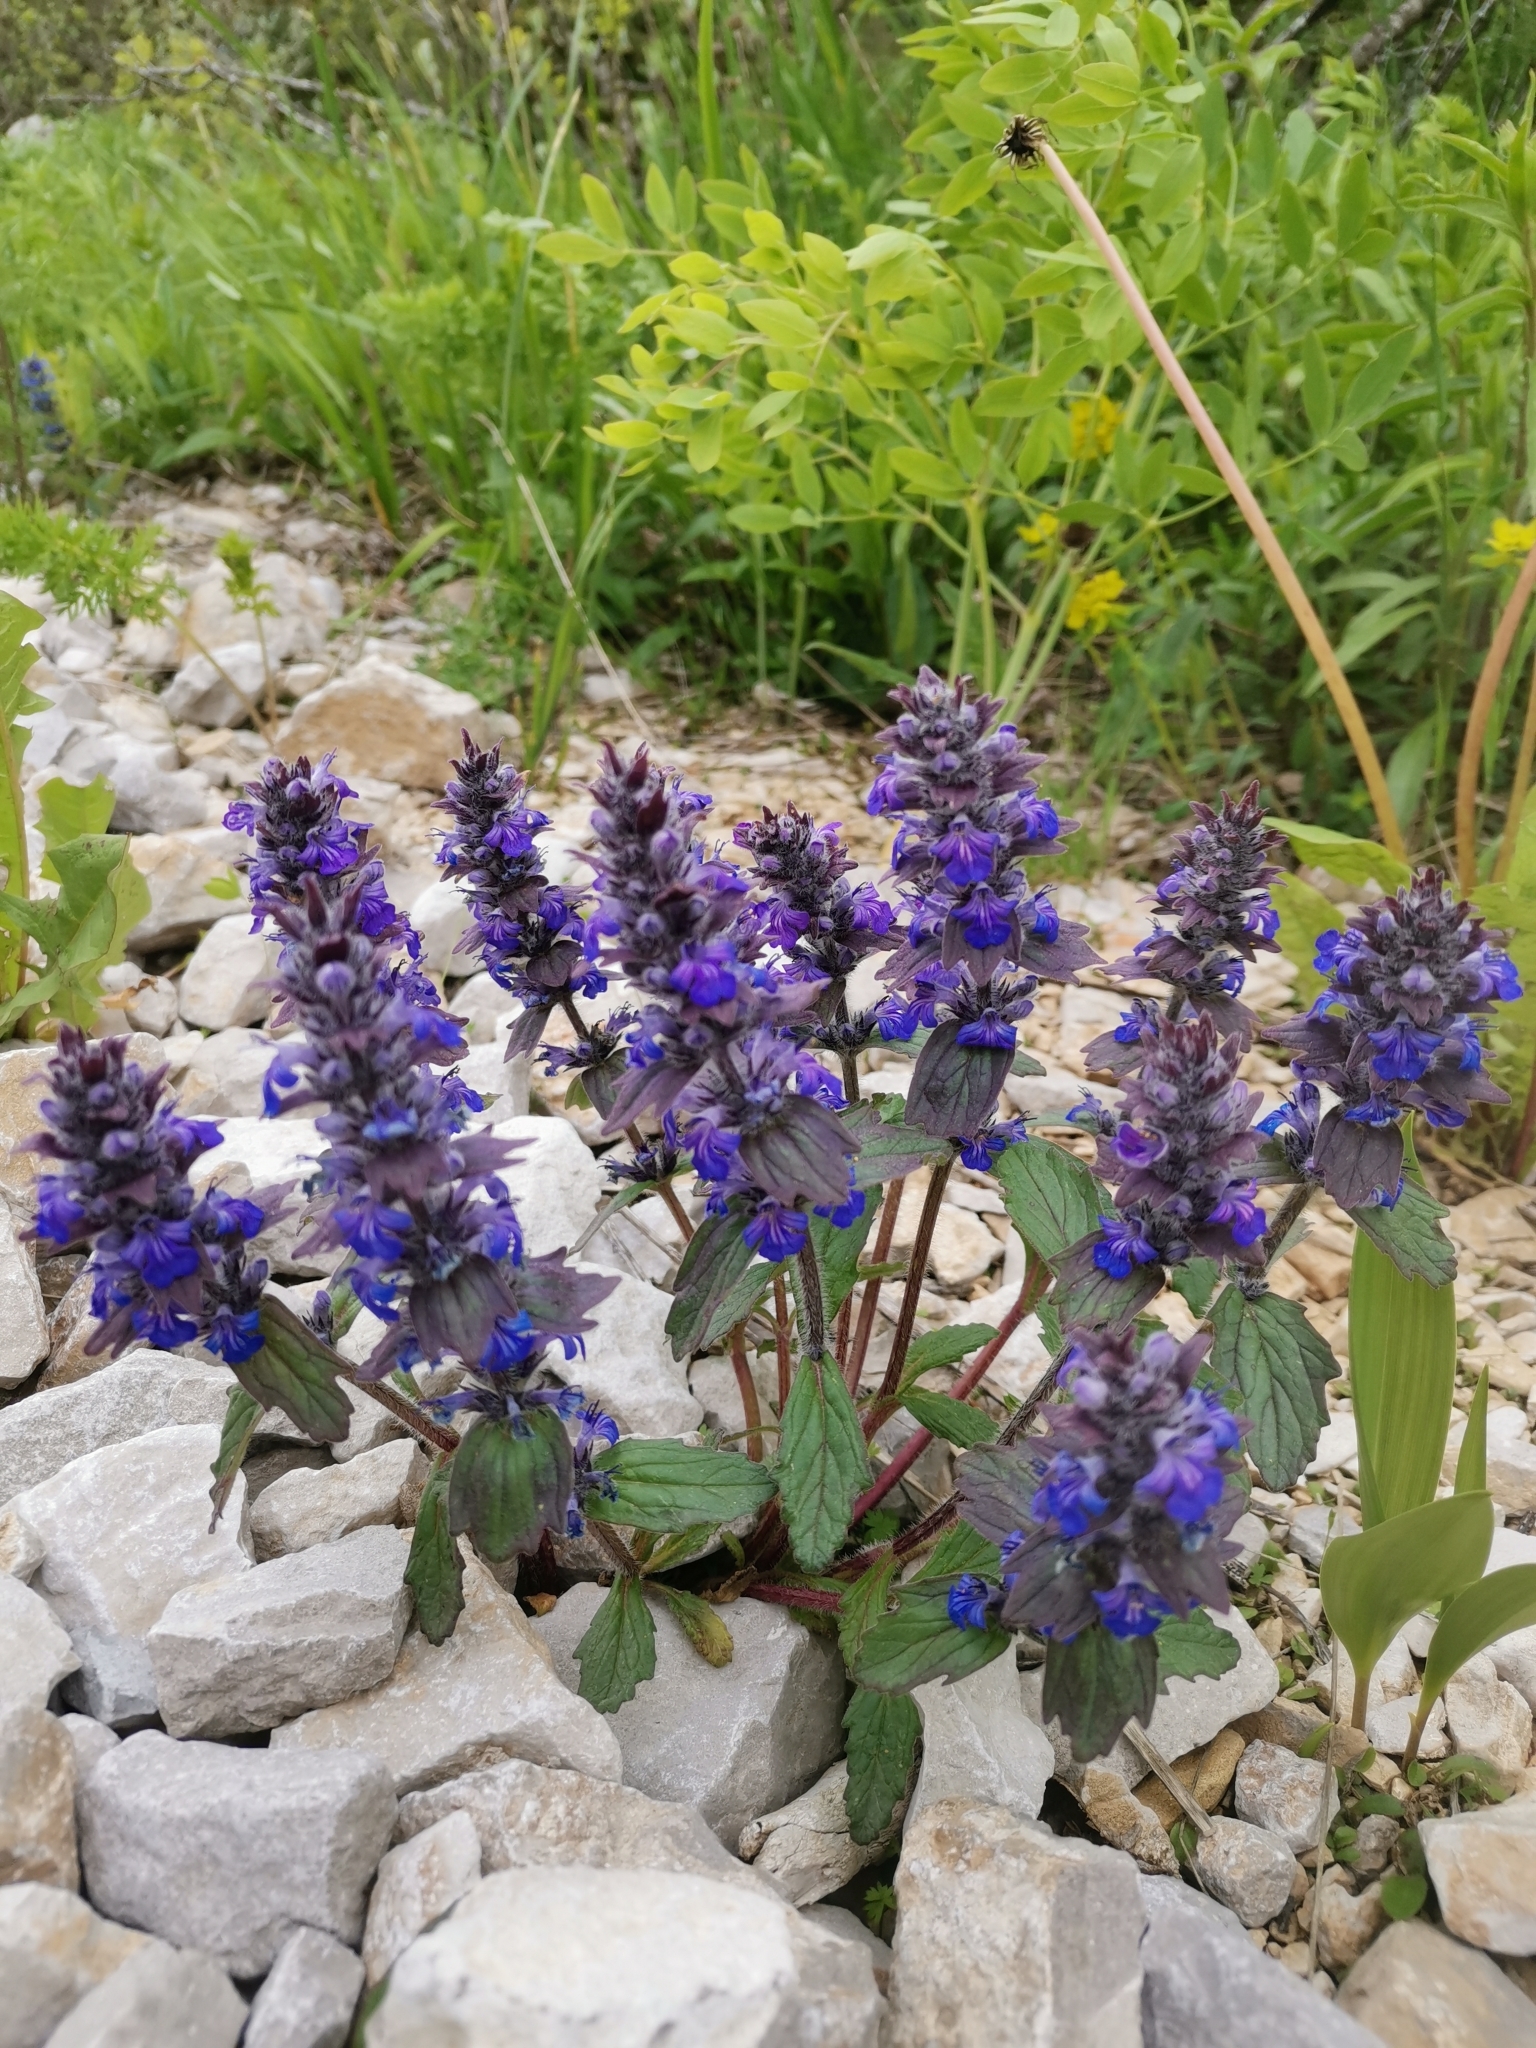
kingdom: Plantae
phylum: Tracheophyta
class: Magnoliopsida
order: Lamiales
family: Lamiaceae
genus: Ajuga
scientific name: Ajuga genevensis
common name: Blue bugle
